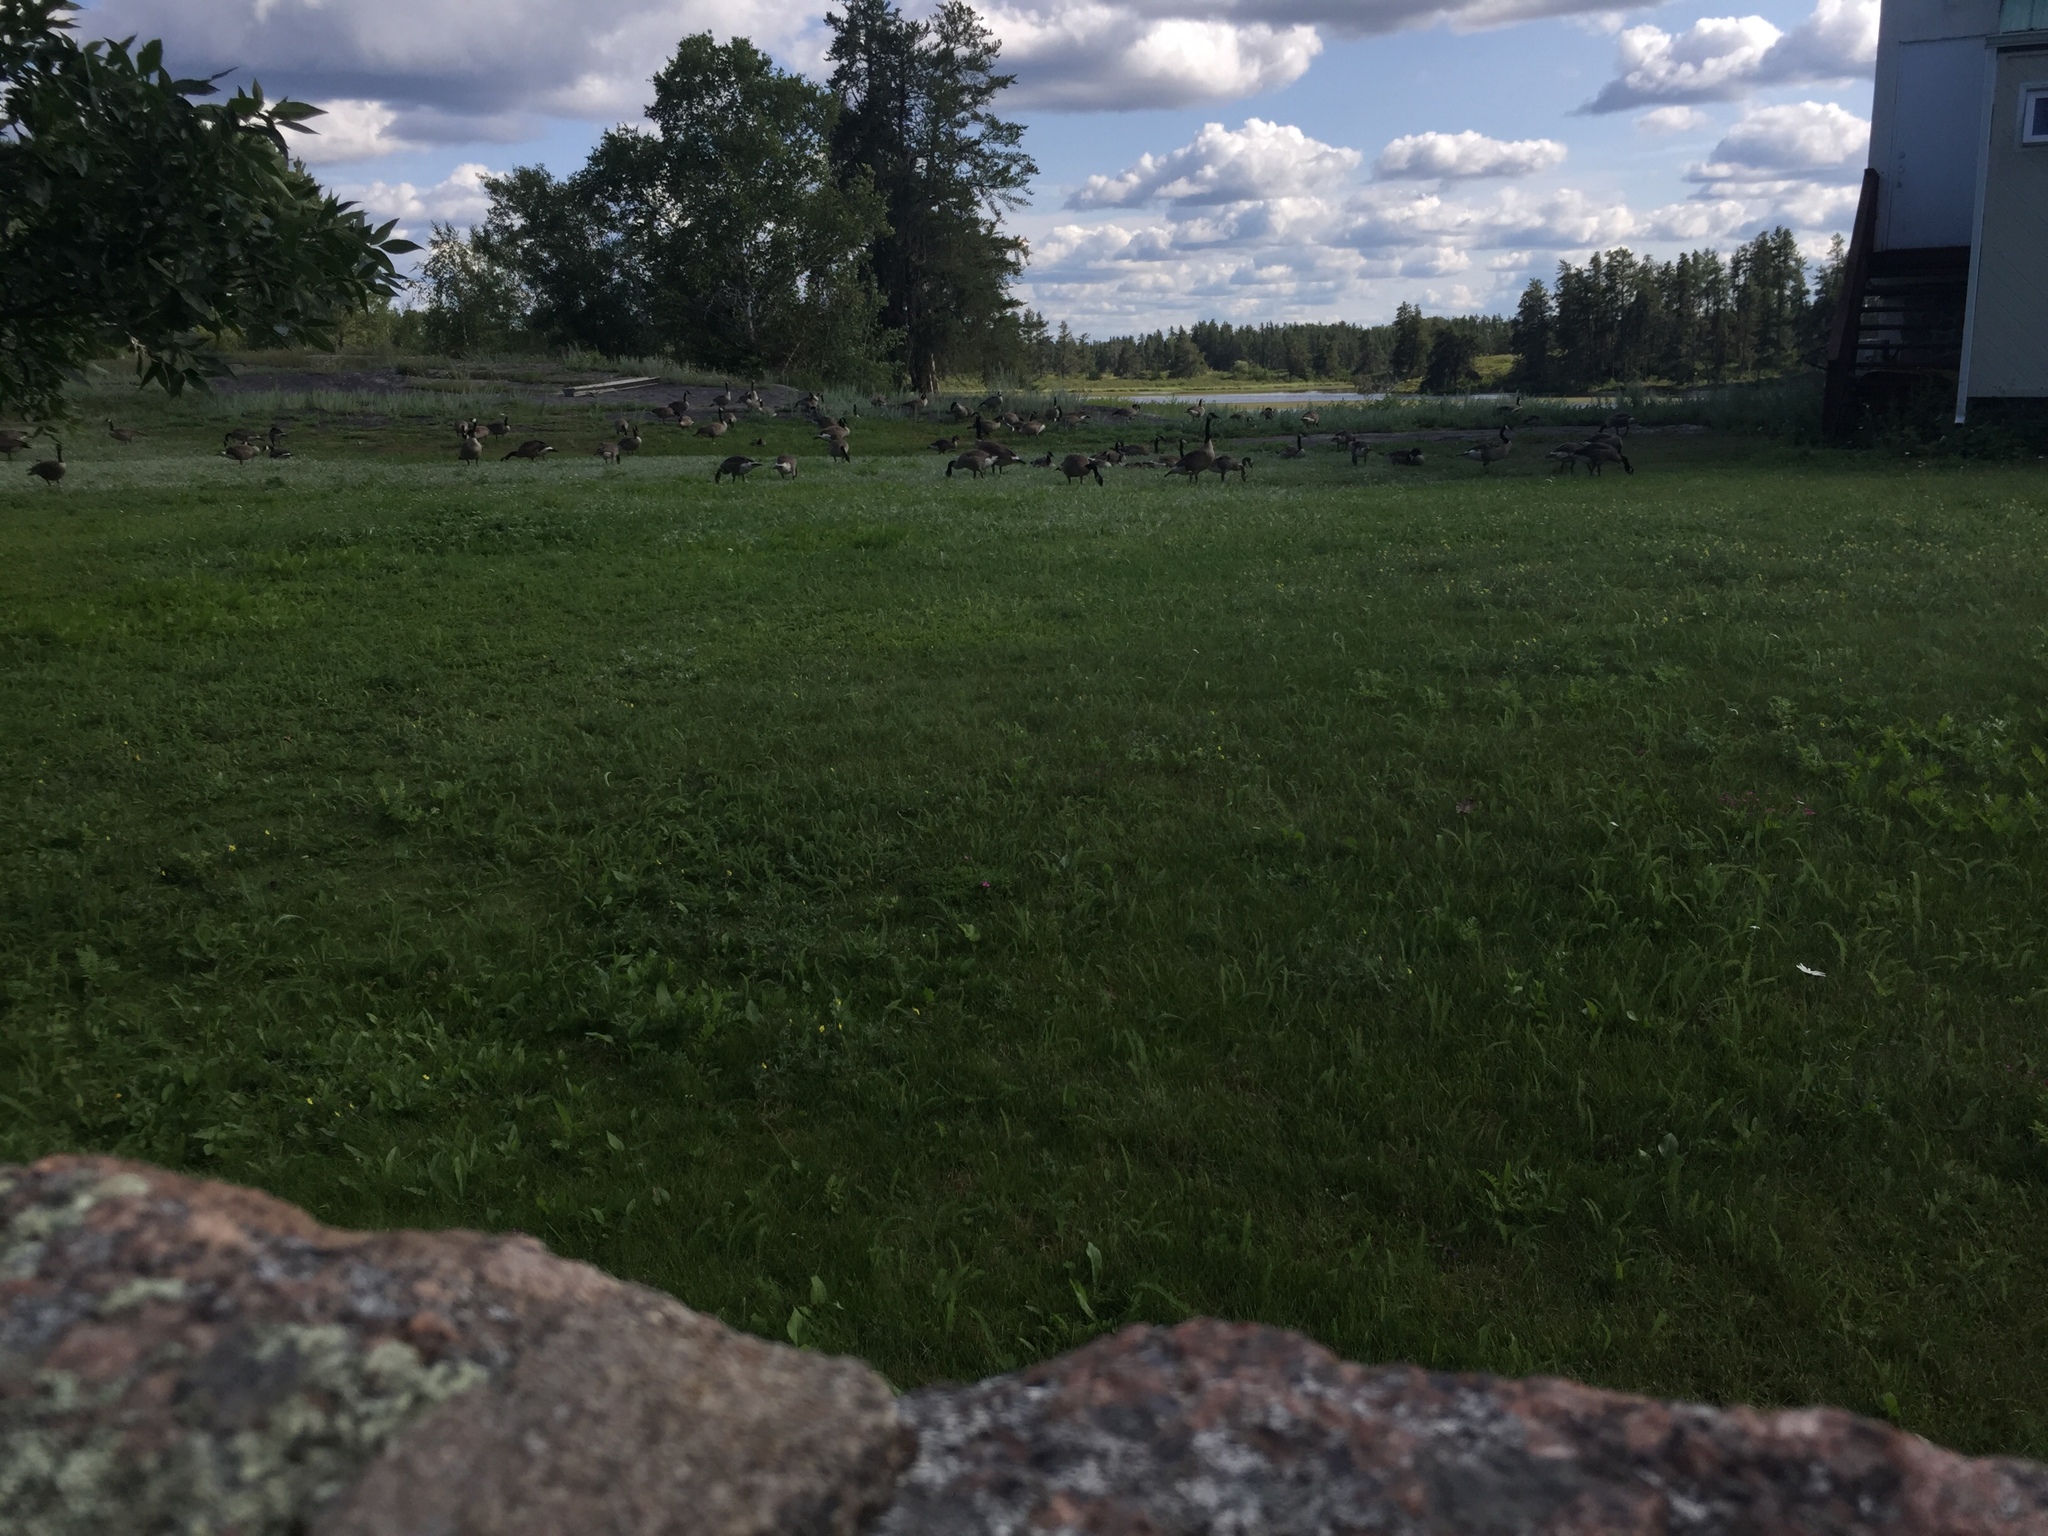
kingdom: Animalia
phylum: Chordata
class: Aves
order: Anseriformes
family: Anatidae
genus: Branta
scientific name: Branta canadensis
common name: Canada goose
